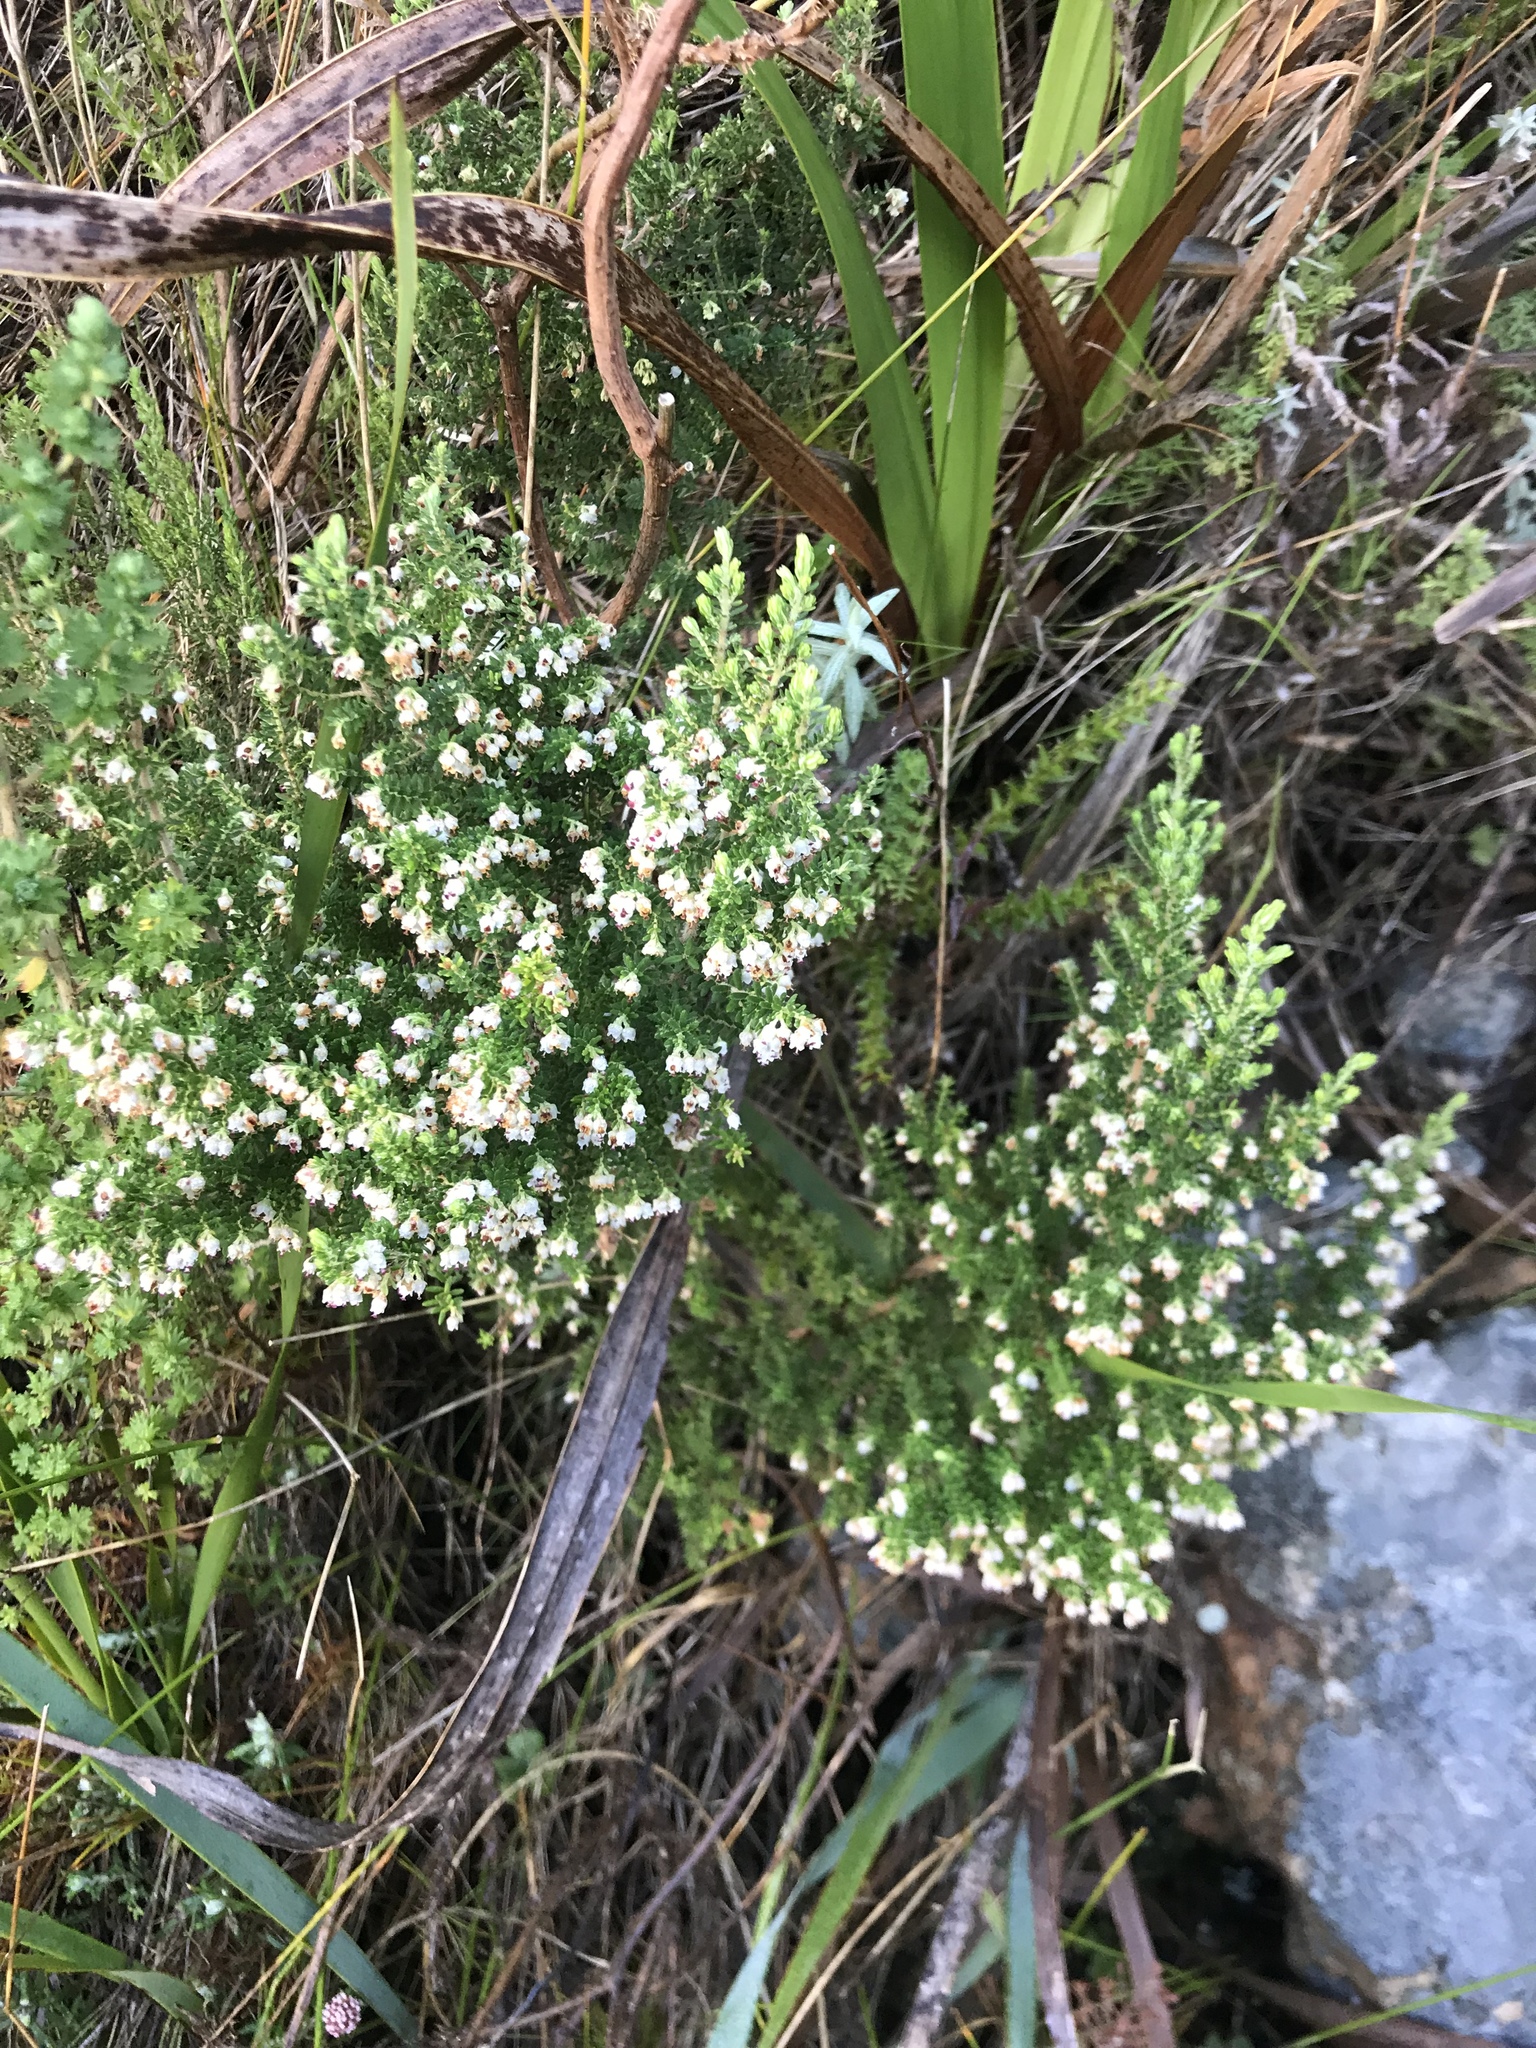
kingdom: Plantae
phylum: Tracheophyta
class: Magnoliopsida
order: Ericales
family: Ericaceae
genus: Erica
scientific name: Erica hispidula
